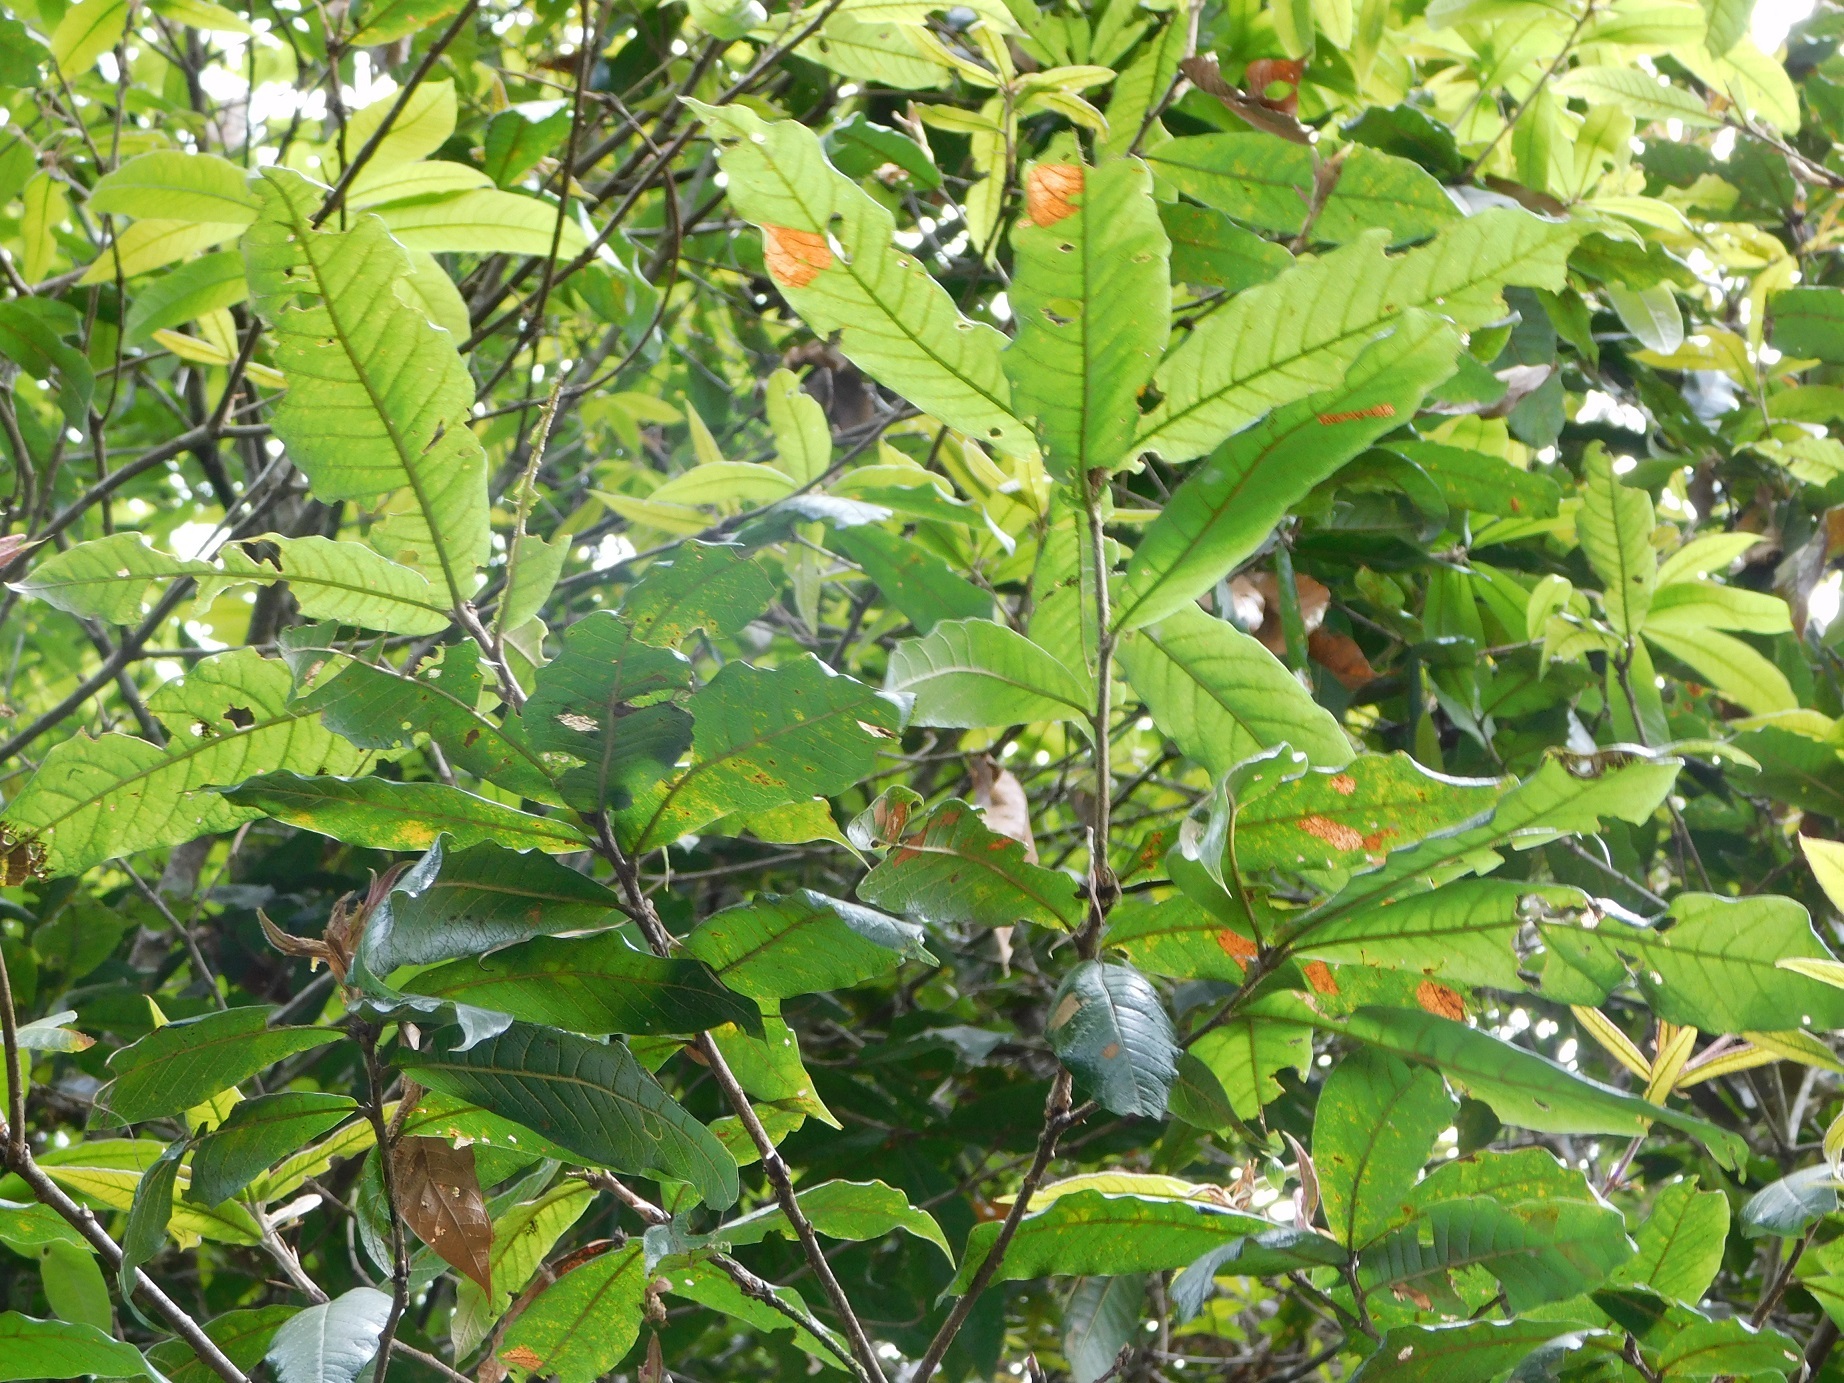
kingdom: Plantae
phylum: Tracheophyta
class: Magnoliopsida
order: Fagales
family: Fagaceae
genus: Quercus
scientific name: Quercus humboldtii
